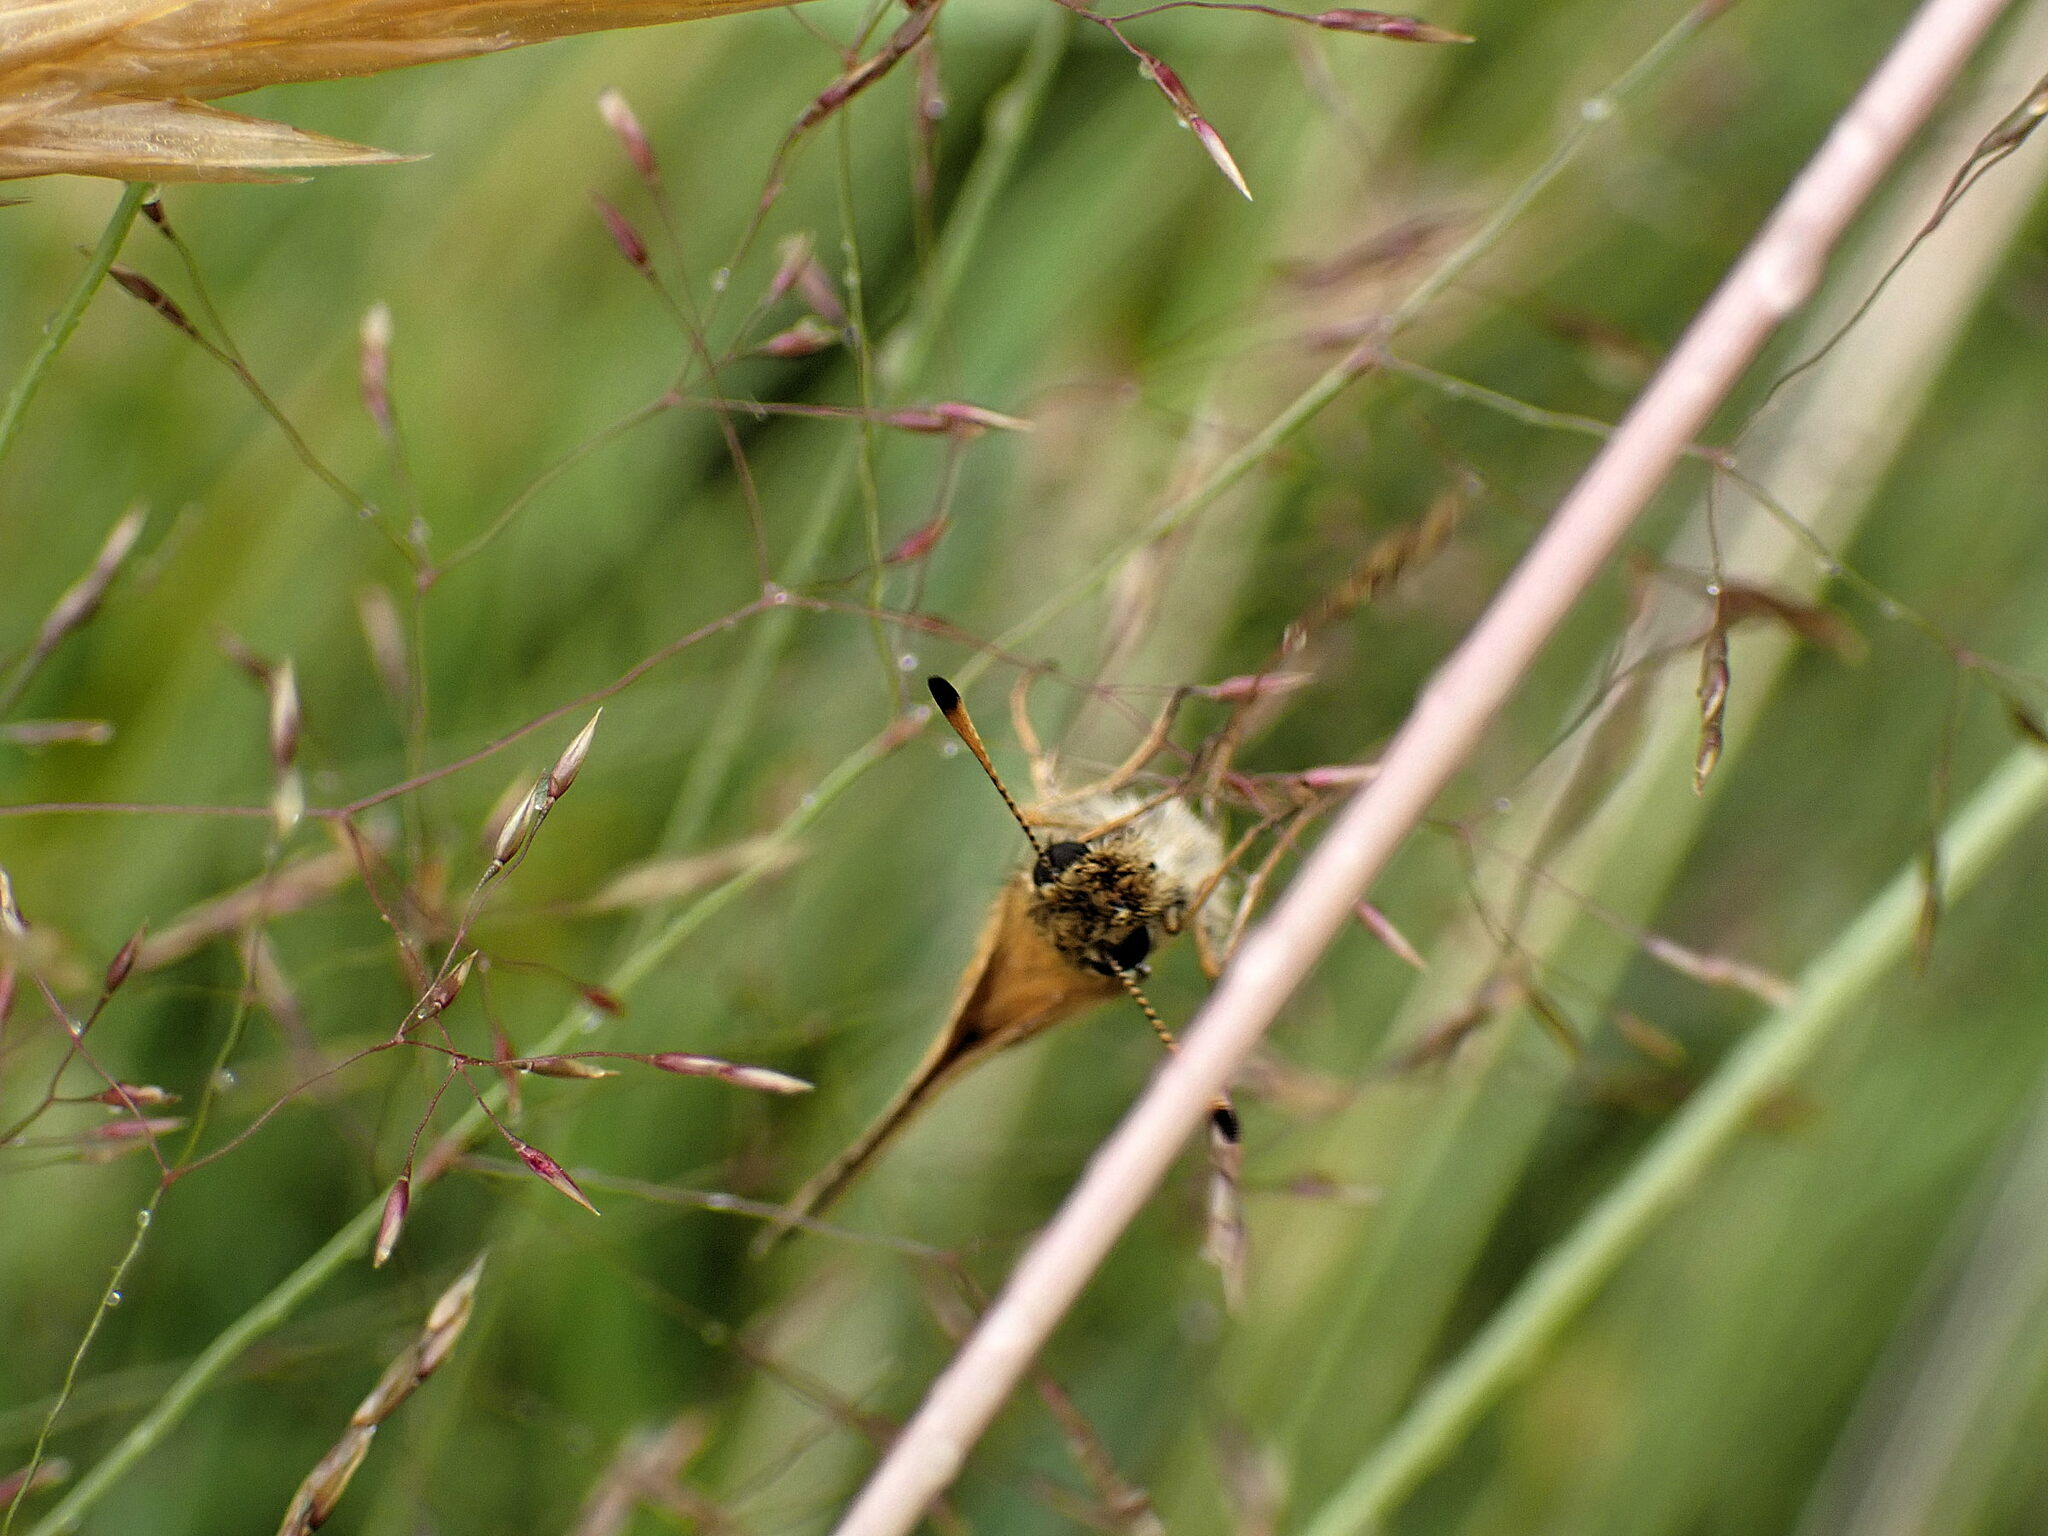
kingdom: Animalia
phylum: Arthropoda
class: Insecta
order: Lepidoptera
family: Hesperiidae
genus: Thymelicus
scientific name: Thymelicus lineola
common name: Essex skipper
